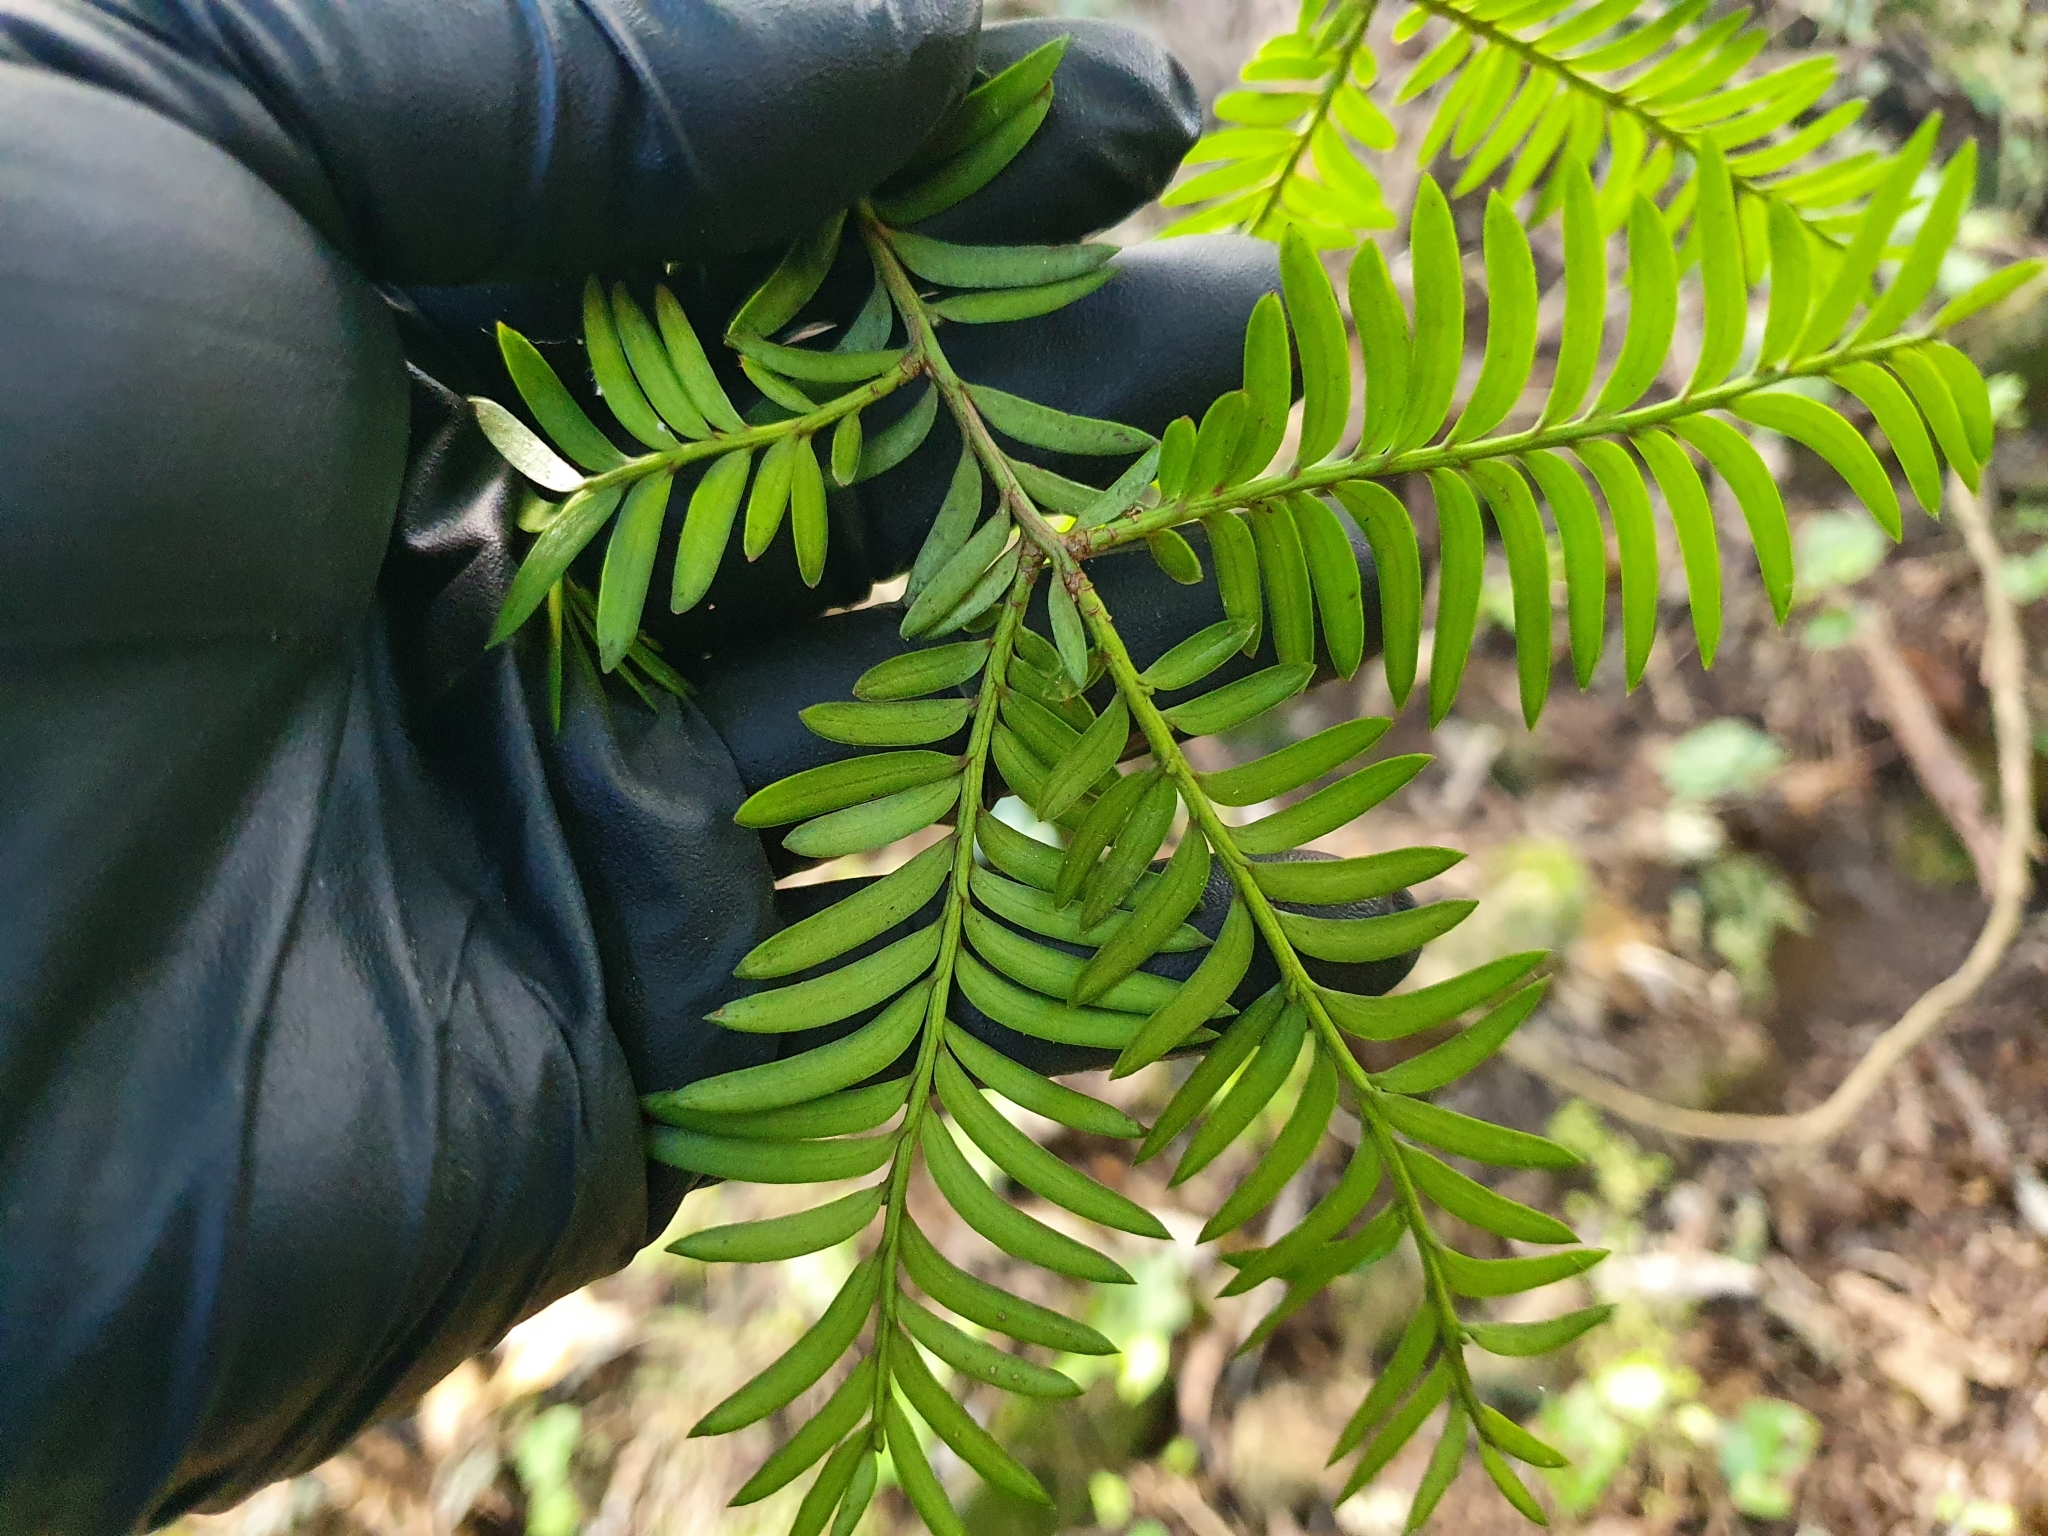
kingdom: Plantae
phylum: Tracheophyta
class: Pinopsida
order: Pinales
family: Podocarpaceae
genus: Prumnopitys
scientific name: Prumnopitys ferruginea
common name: Brown pine
